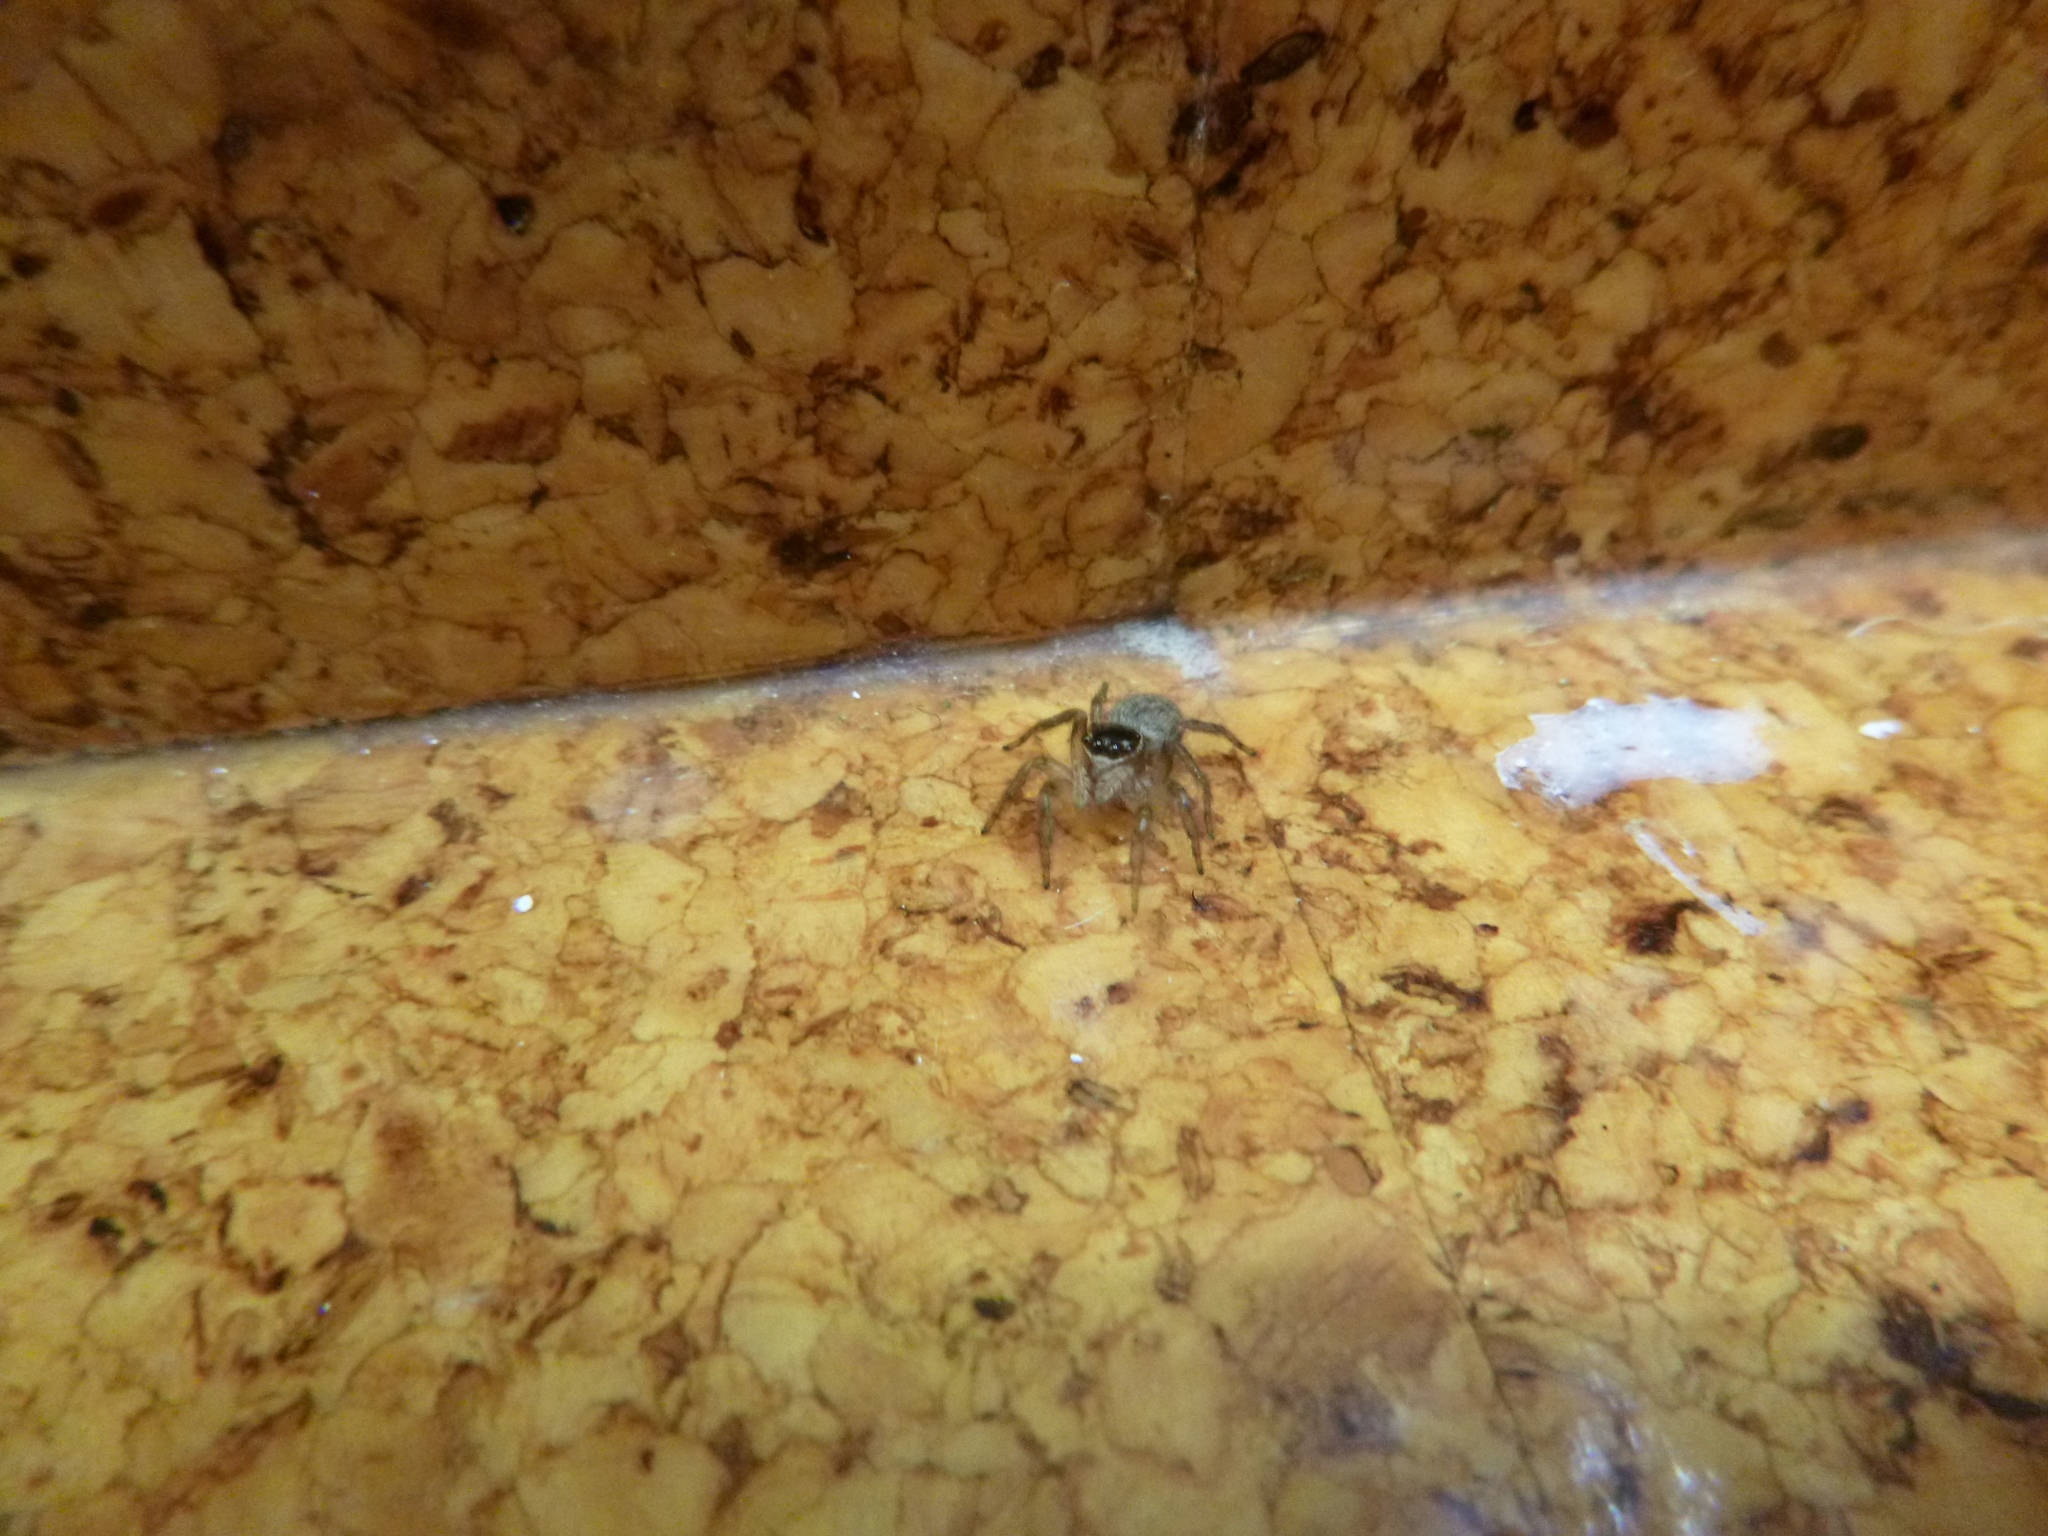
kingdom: Animalia
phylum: Arthropoda
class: Arachnida
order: Araneae
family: Salticidae
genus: Maratus
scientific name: Maratus griseus
